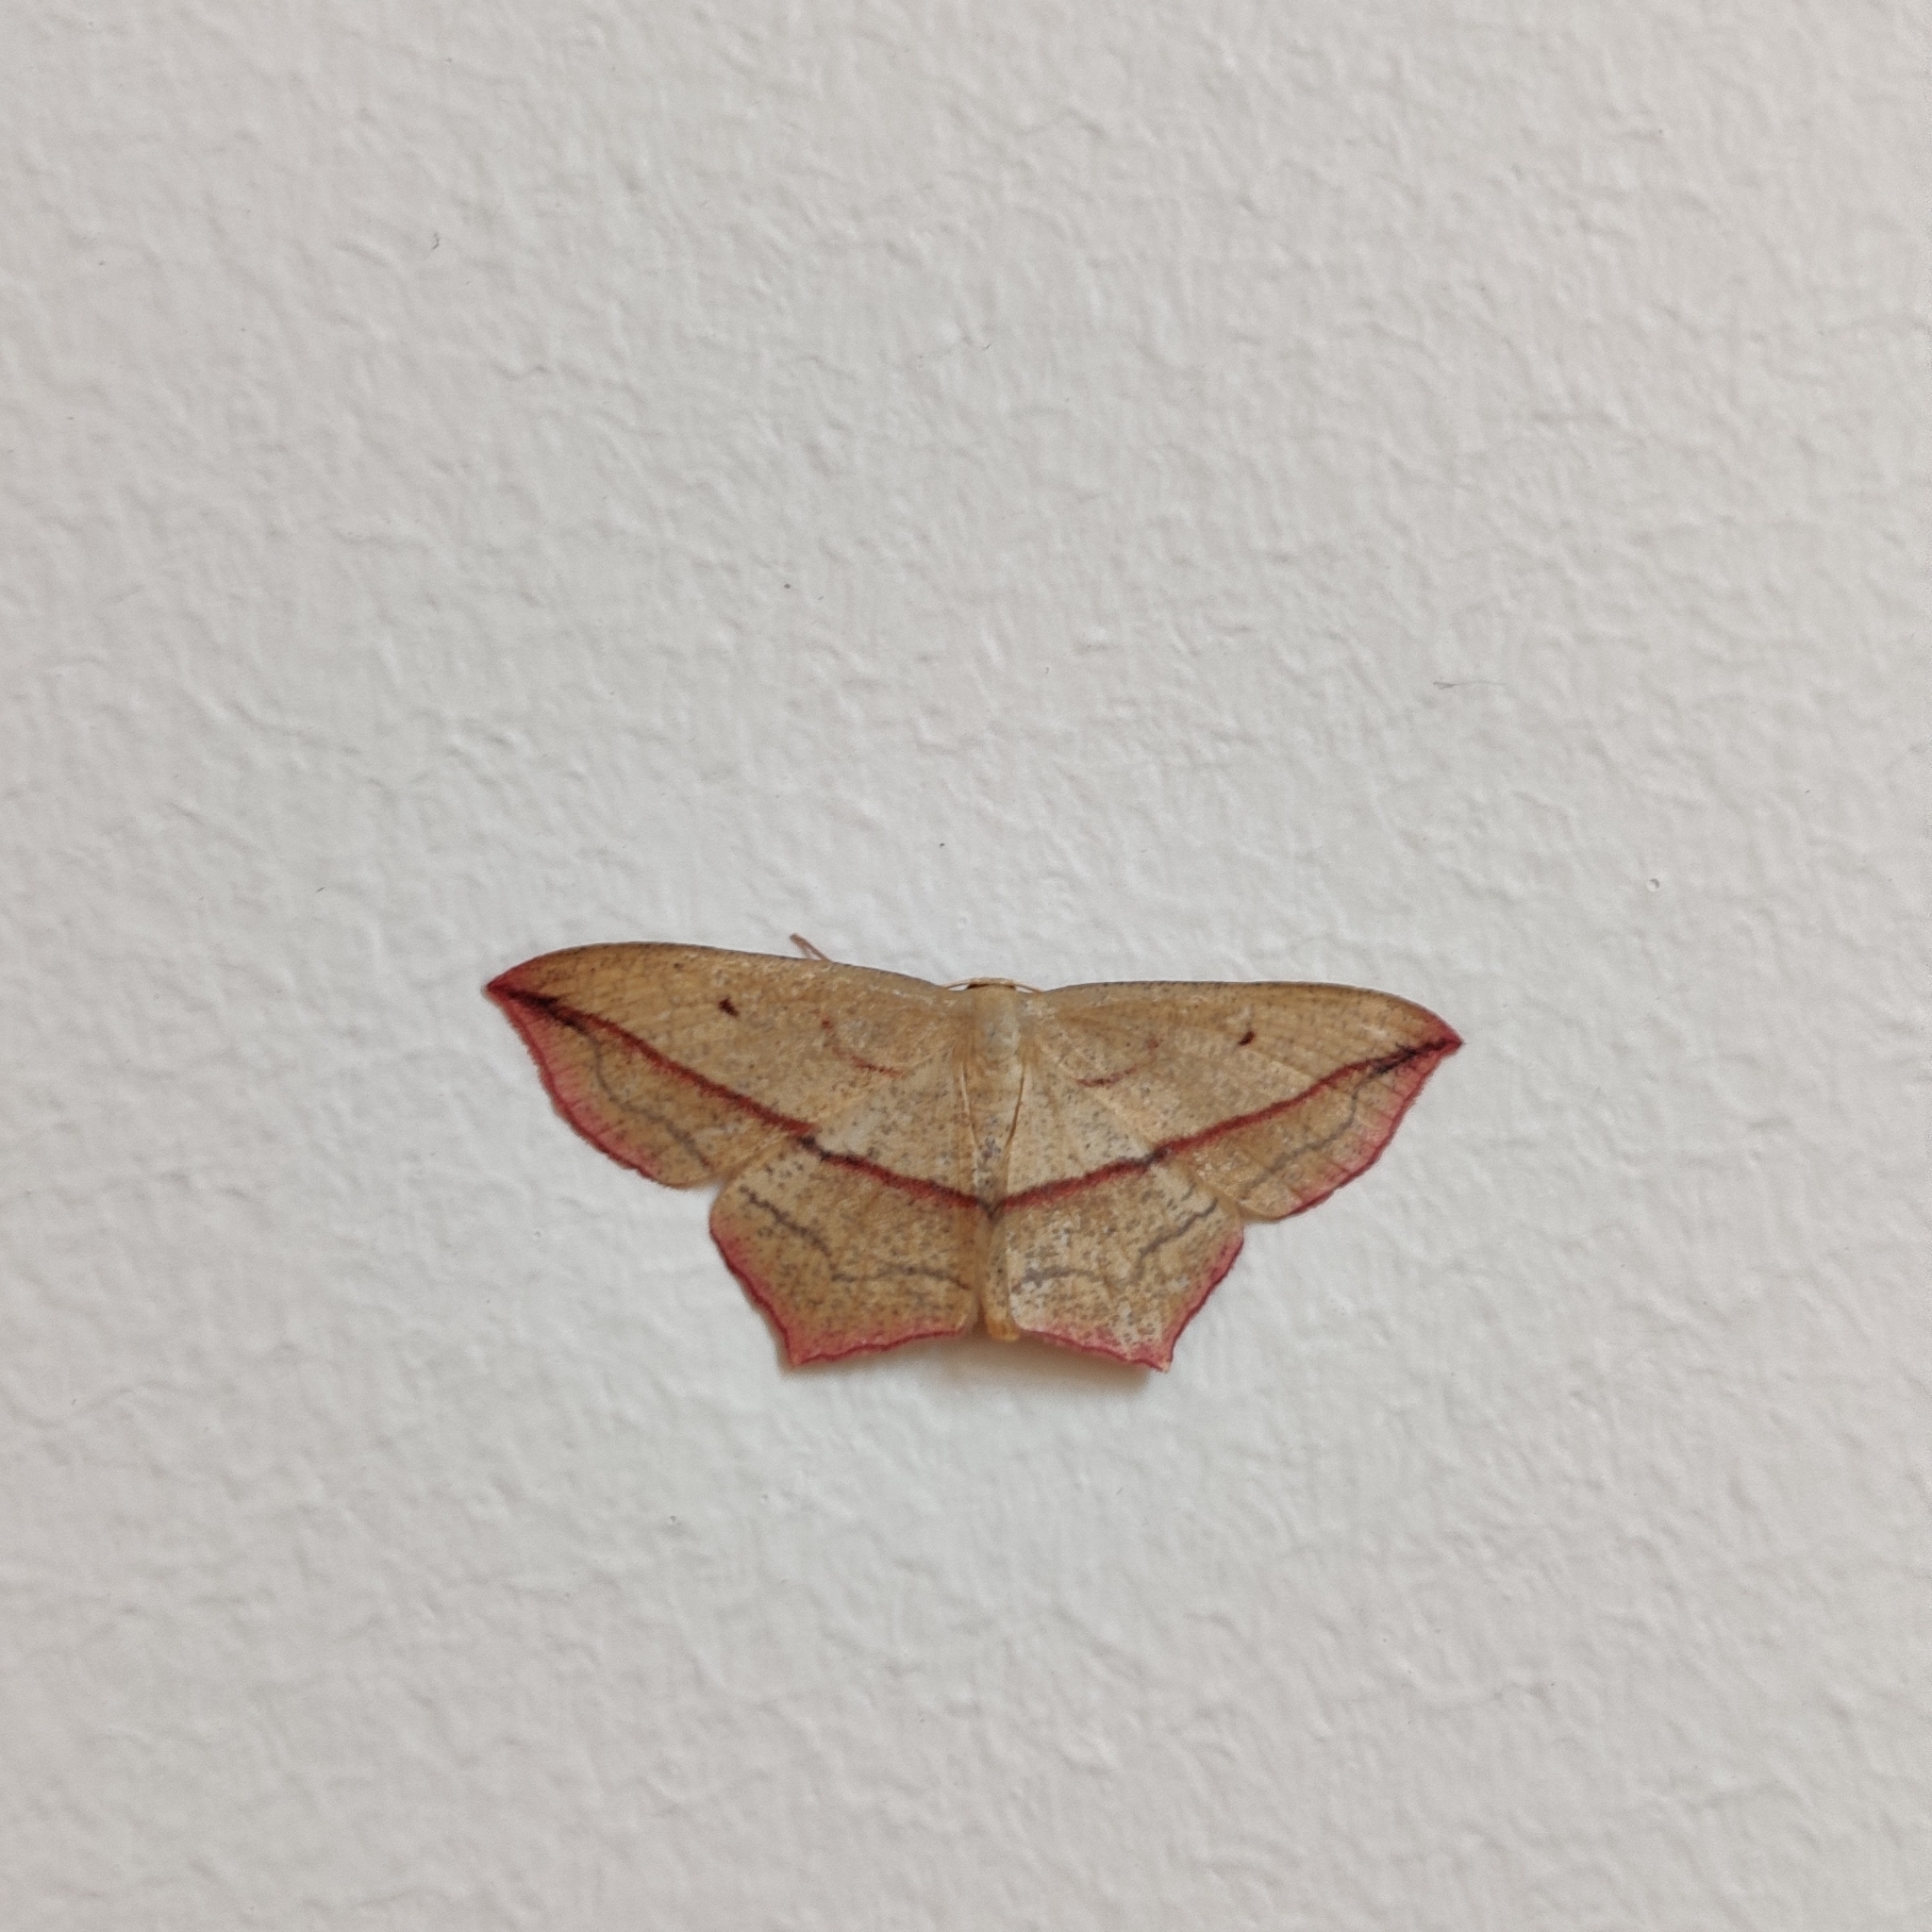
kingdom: Animalia
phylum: Arthropoda
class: Insecta
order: Lepidoptera
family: Geometridae
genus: Timandra
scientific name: Timandra comae
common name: Blood-vein
